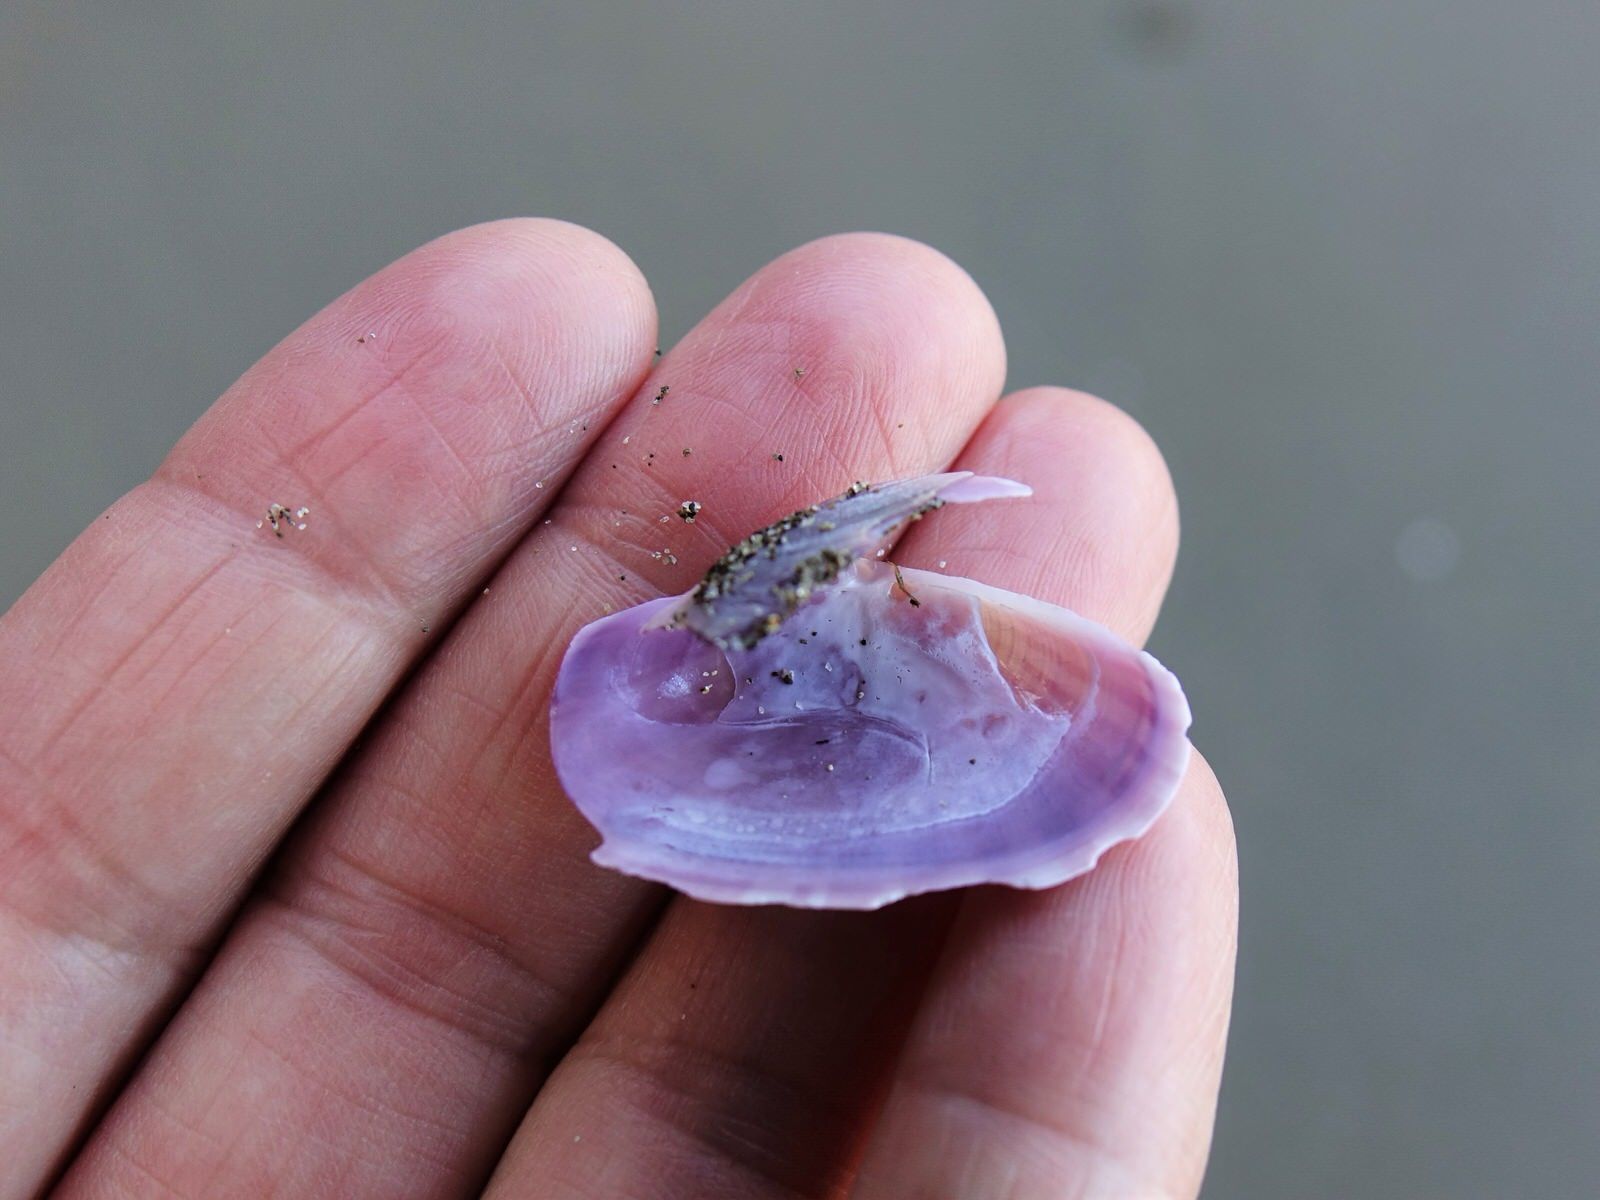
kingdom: Animalia
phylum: Mollusca
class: Bivalvia
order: Cardiida
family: Psammobiidae
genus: Gari
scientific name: Gari stangeri
